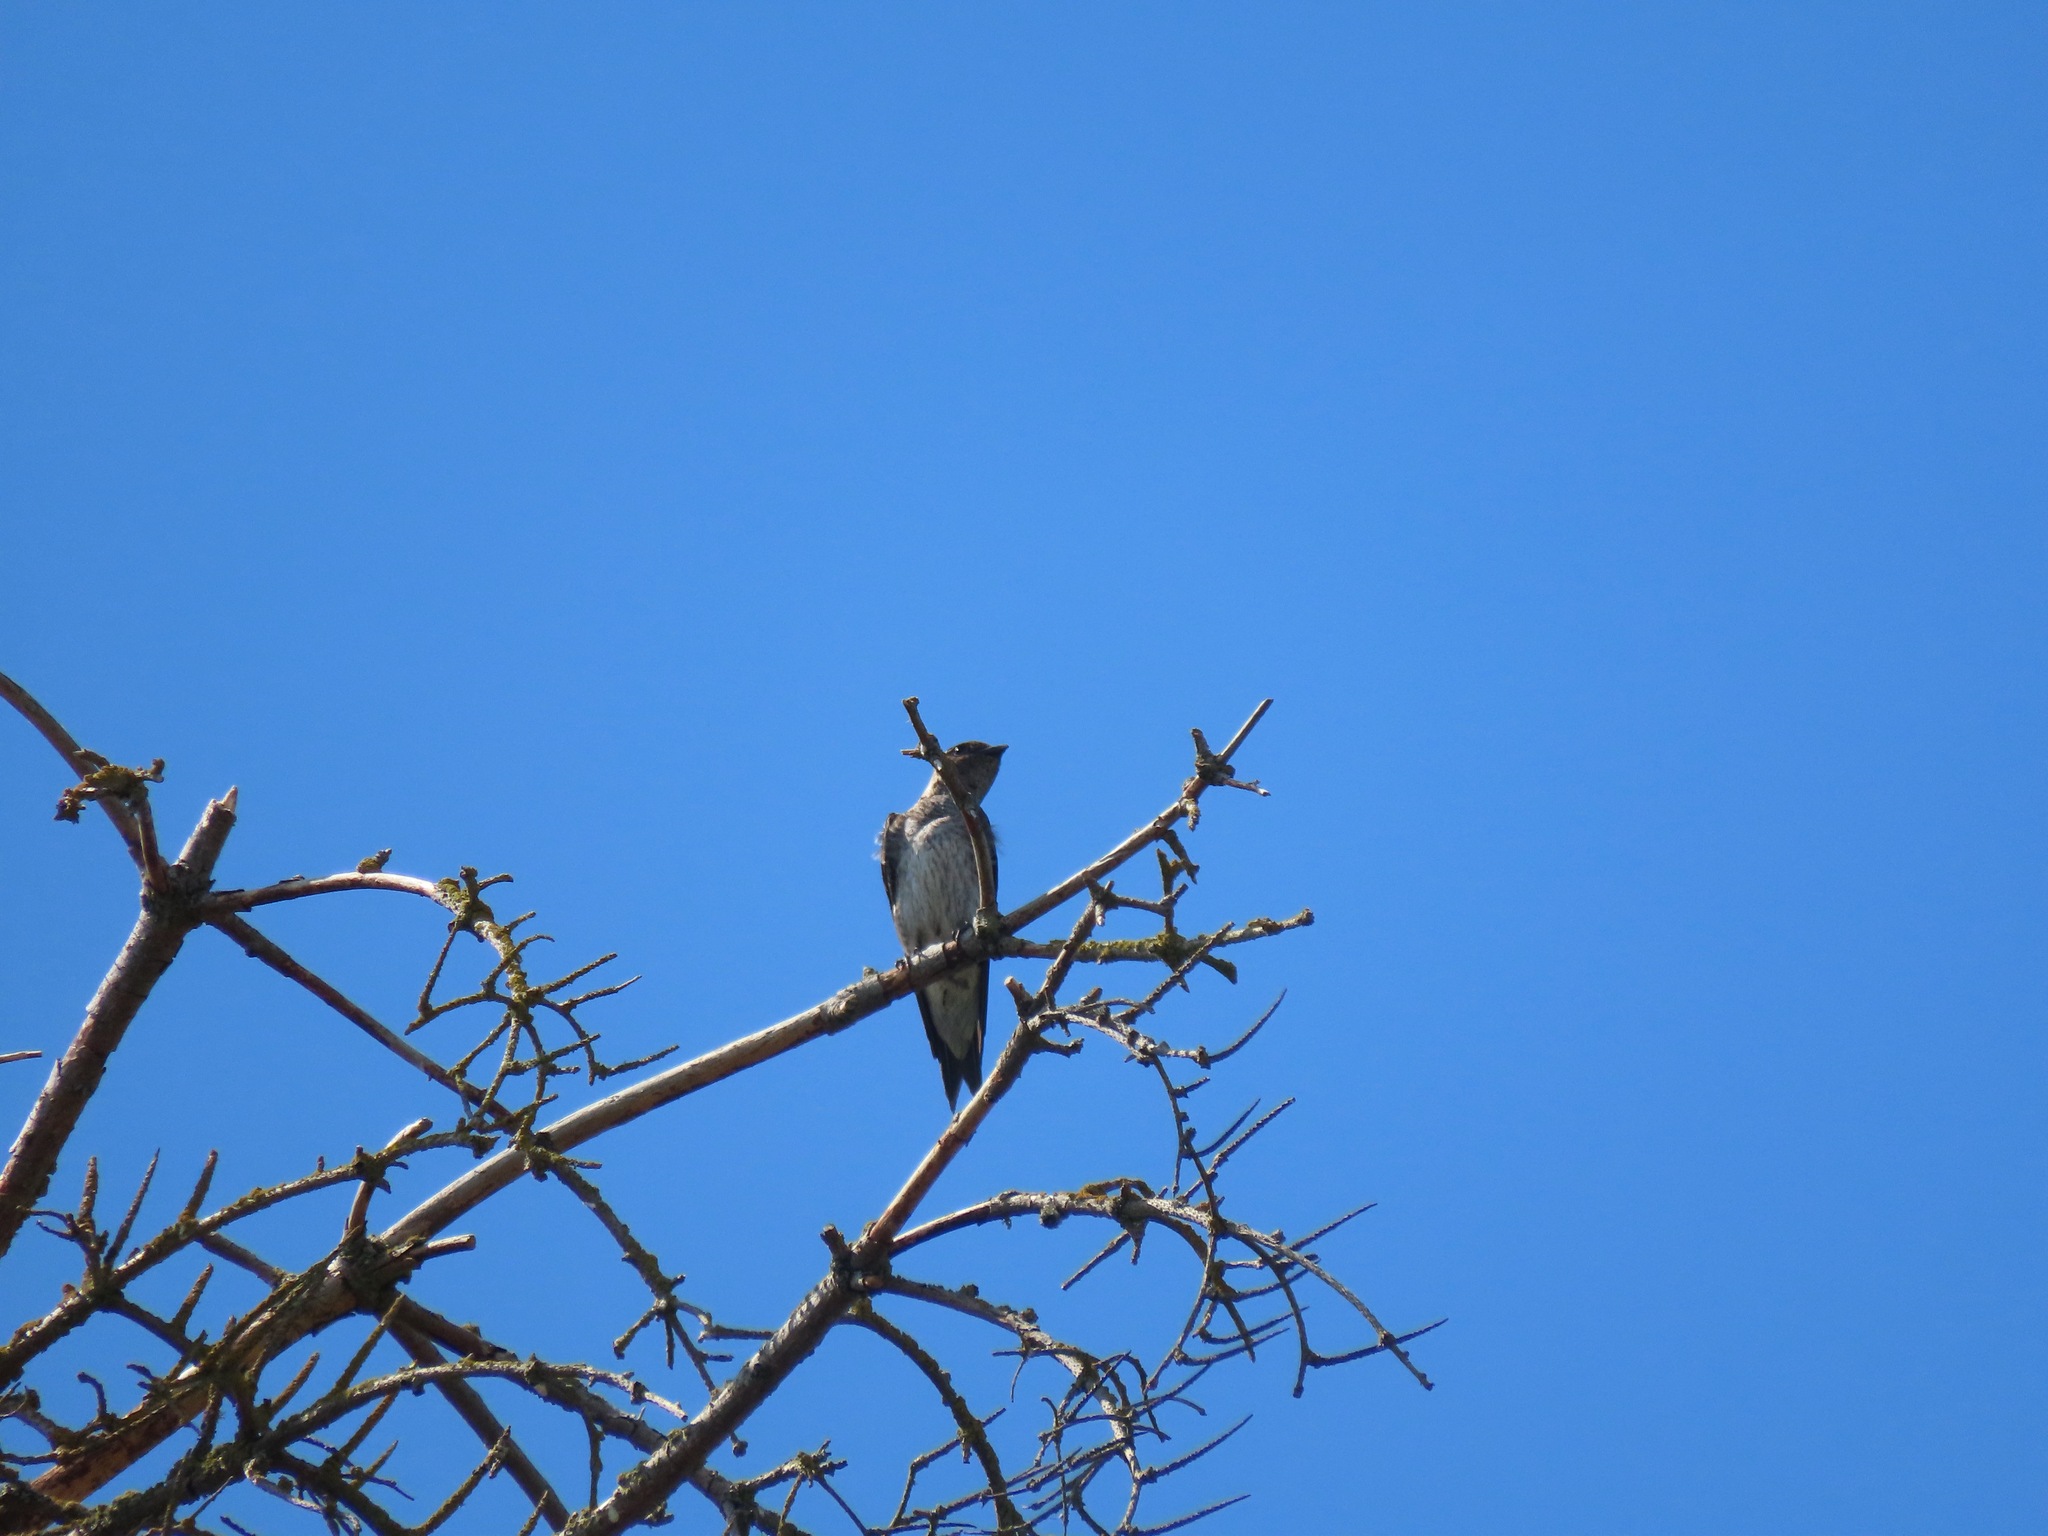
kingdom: Animalia
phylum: Chordata
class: Aves
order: Passeriformes
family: Hirundinidae
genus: Progne
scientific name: Progne subis
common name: Purple martin
